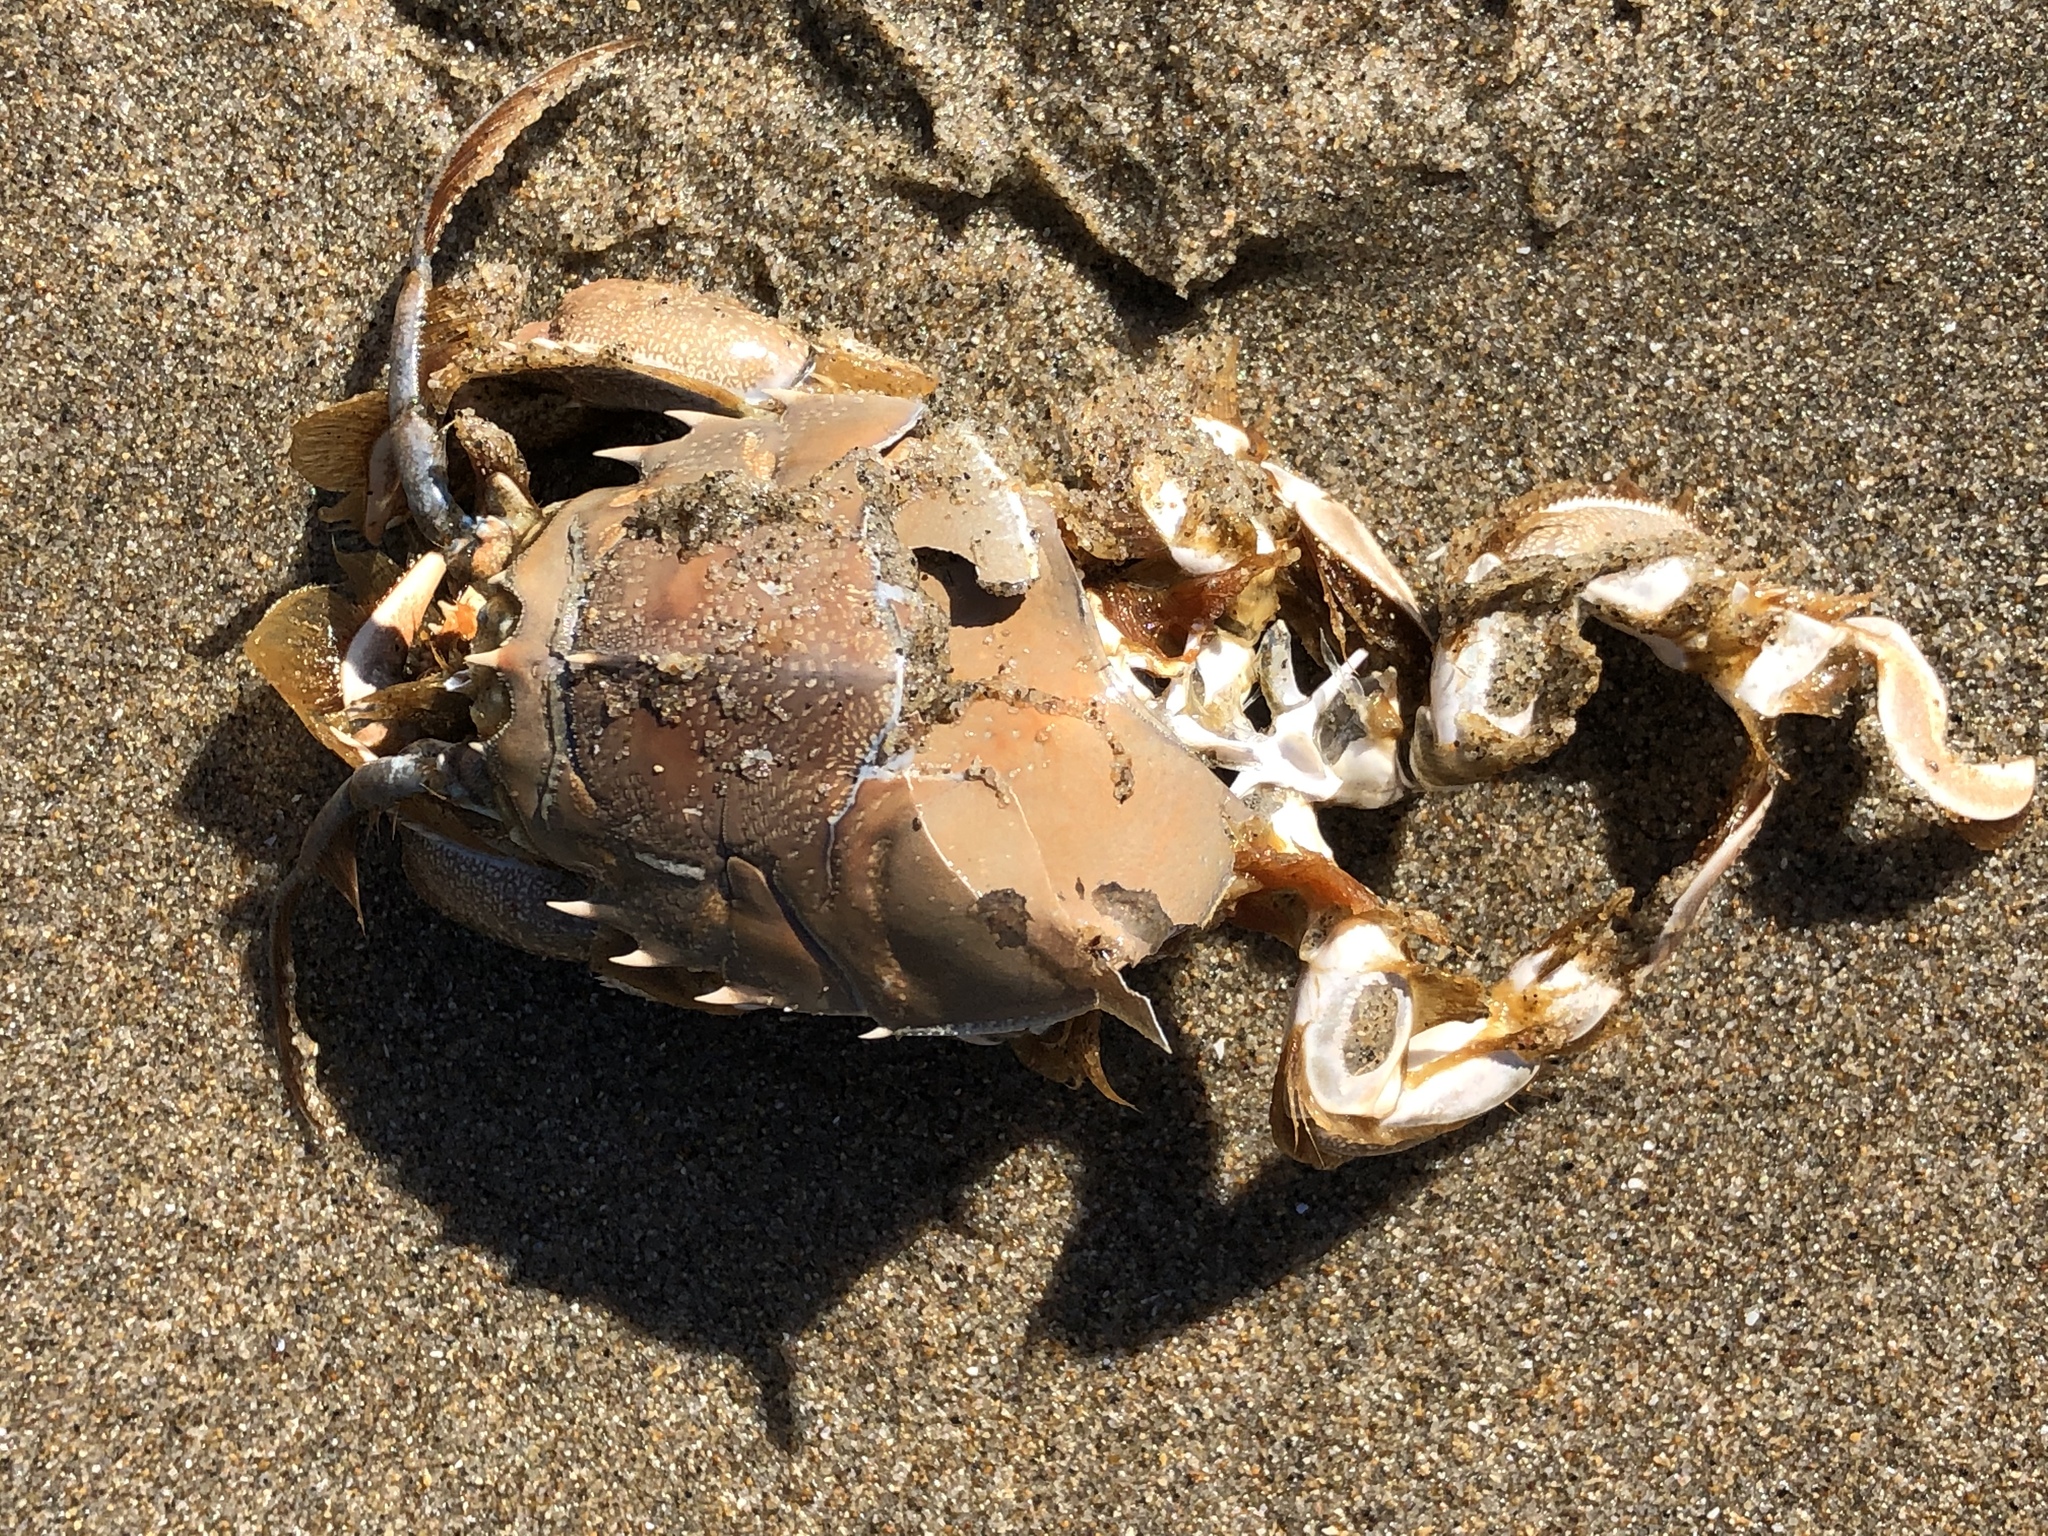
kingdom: Animalia
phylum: Arthropoda
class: Malacostraca
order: Decapoda
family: Blepharipodidae
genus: Blepharipoda
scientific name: Blepharipoda occidentalis
